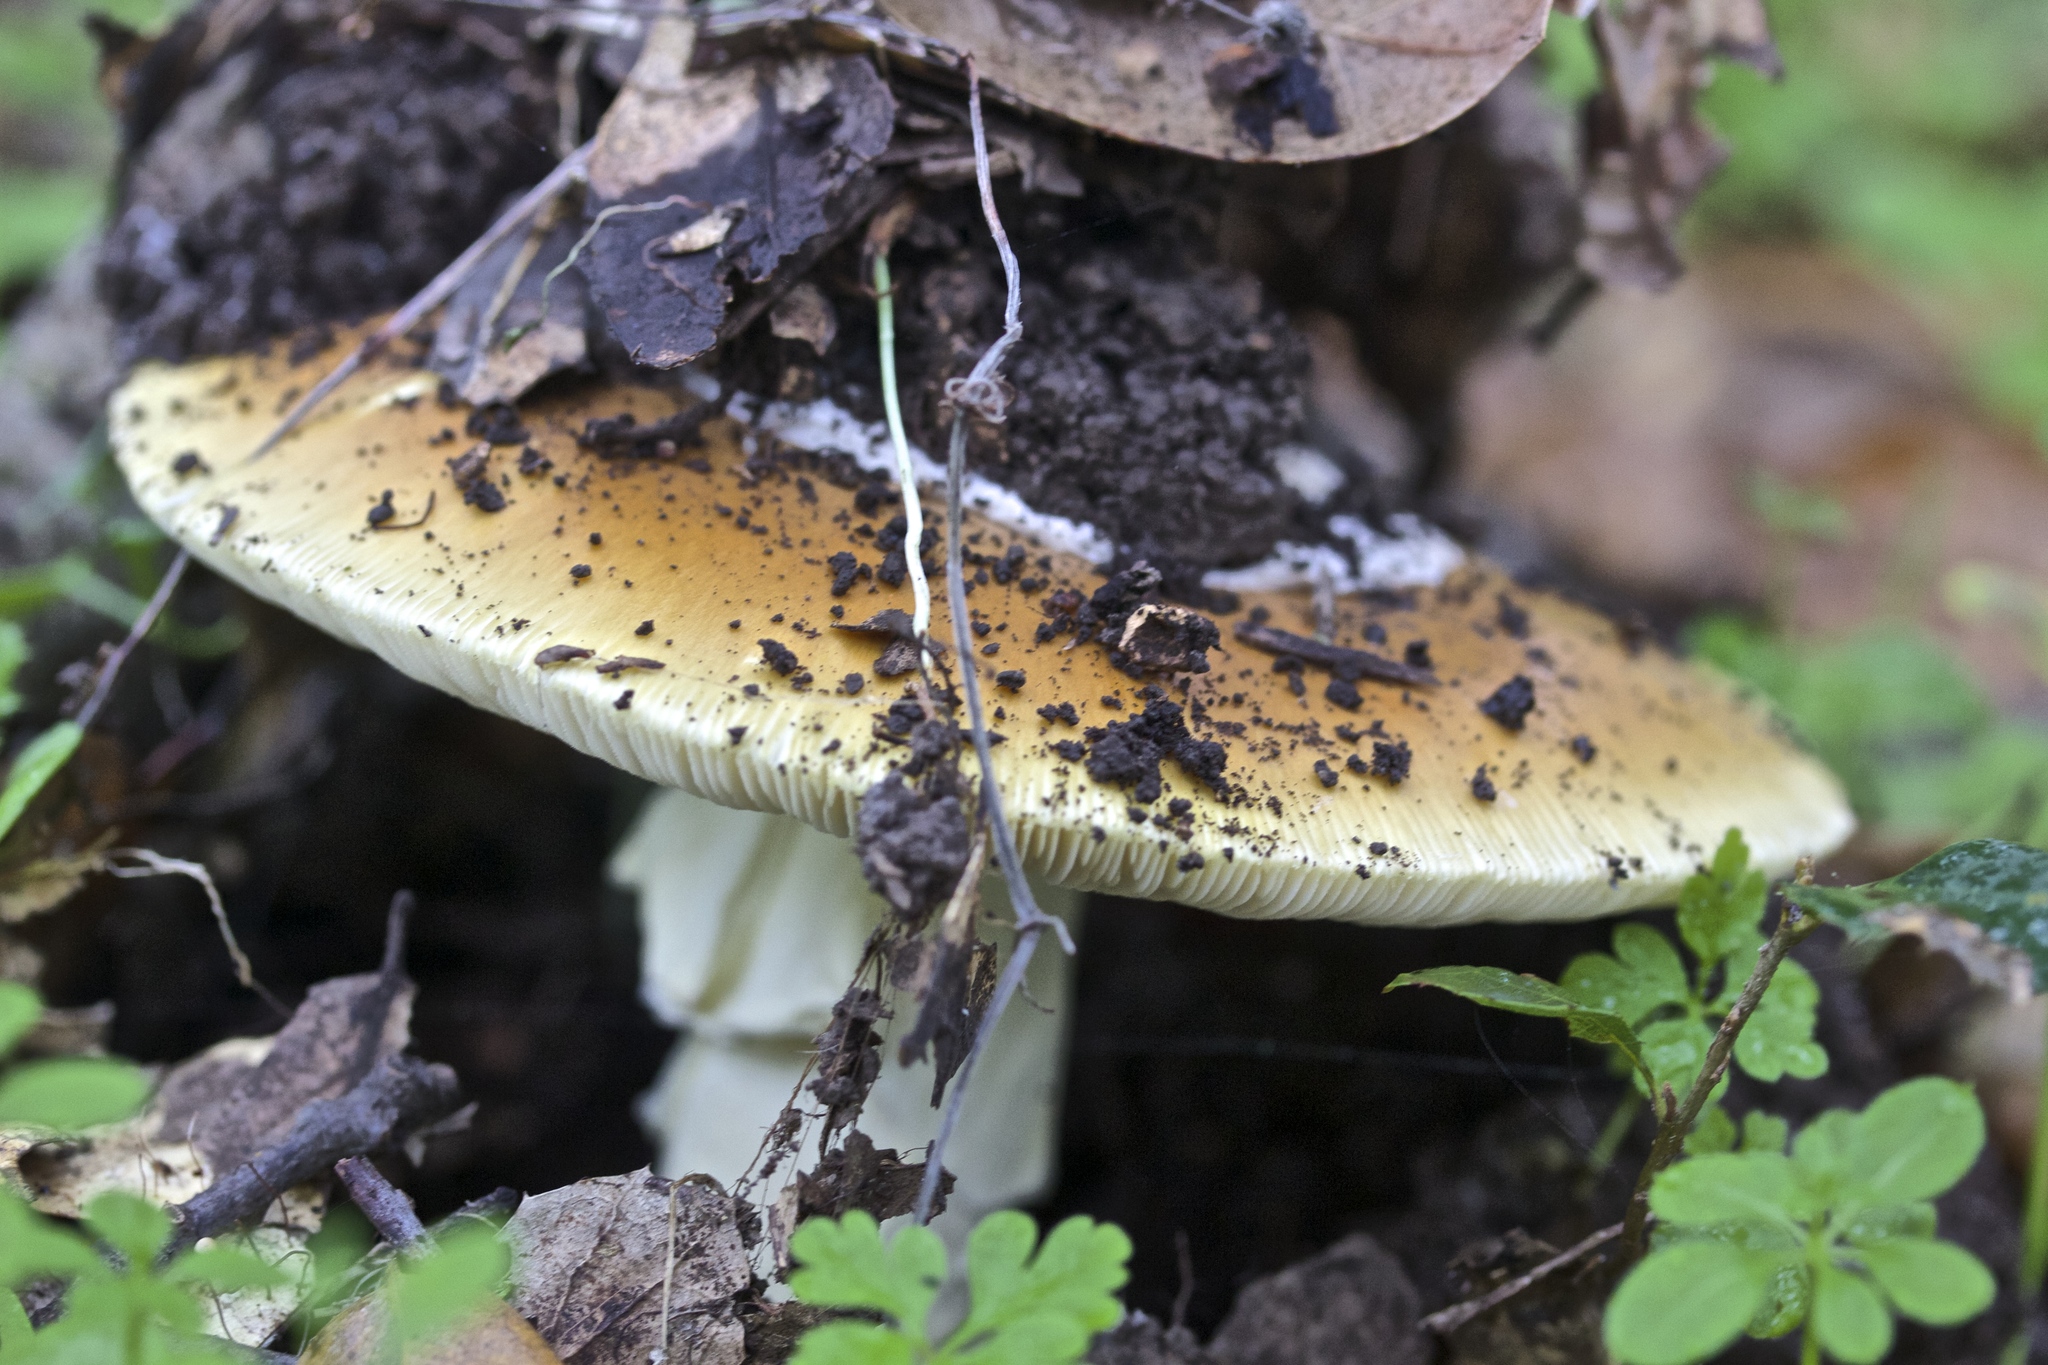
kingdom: Fungi
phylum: Basidiomycota
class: Agaricomycetes
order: Agaricales
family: Amanitaceae
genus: Amanita
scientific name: Amanita calyptroderma
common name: Coccora
